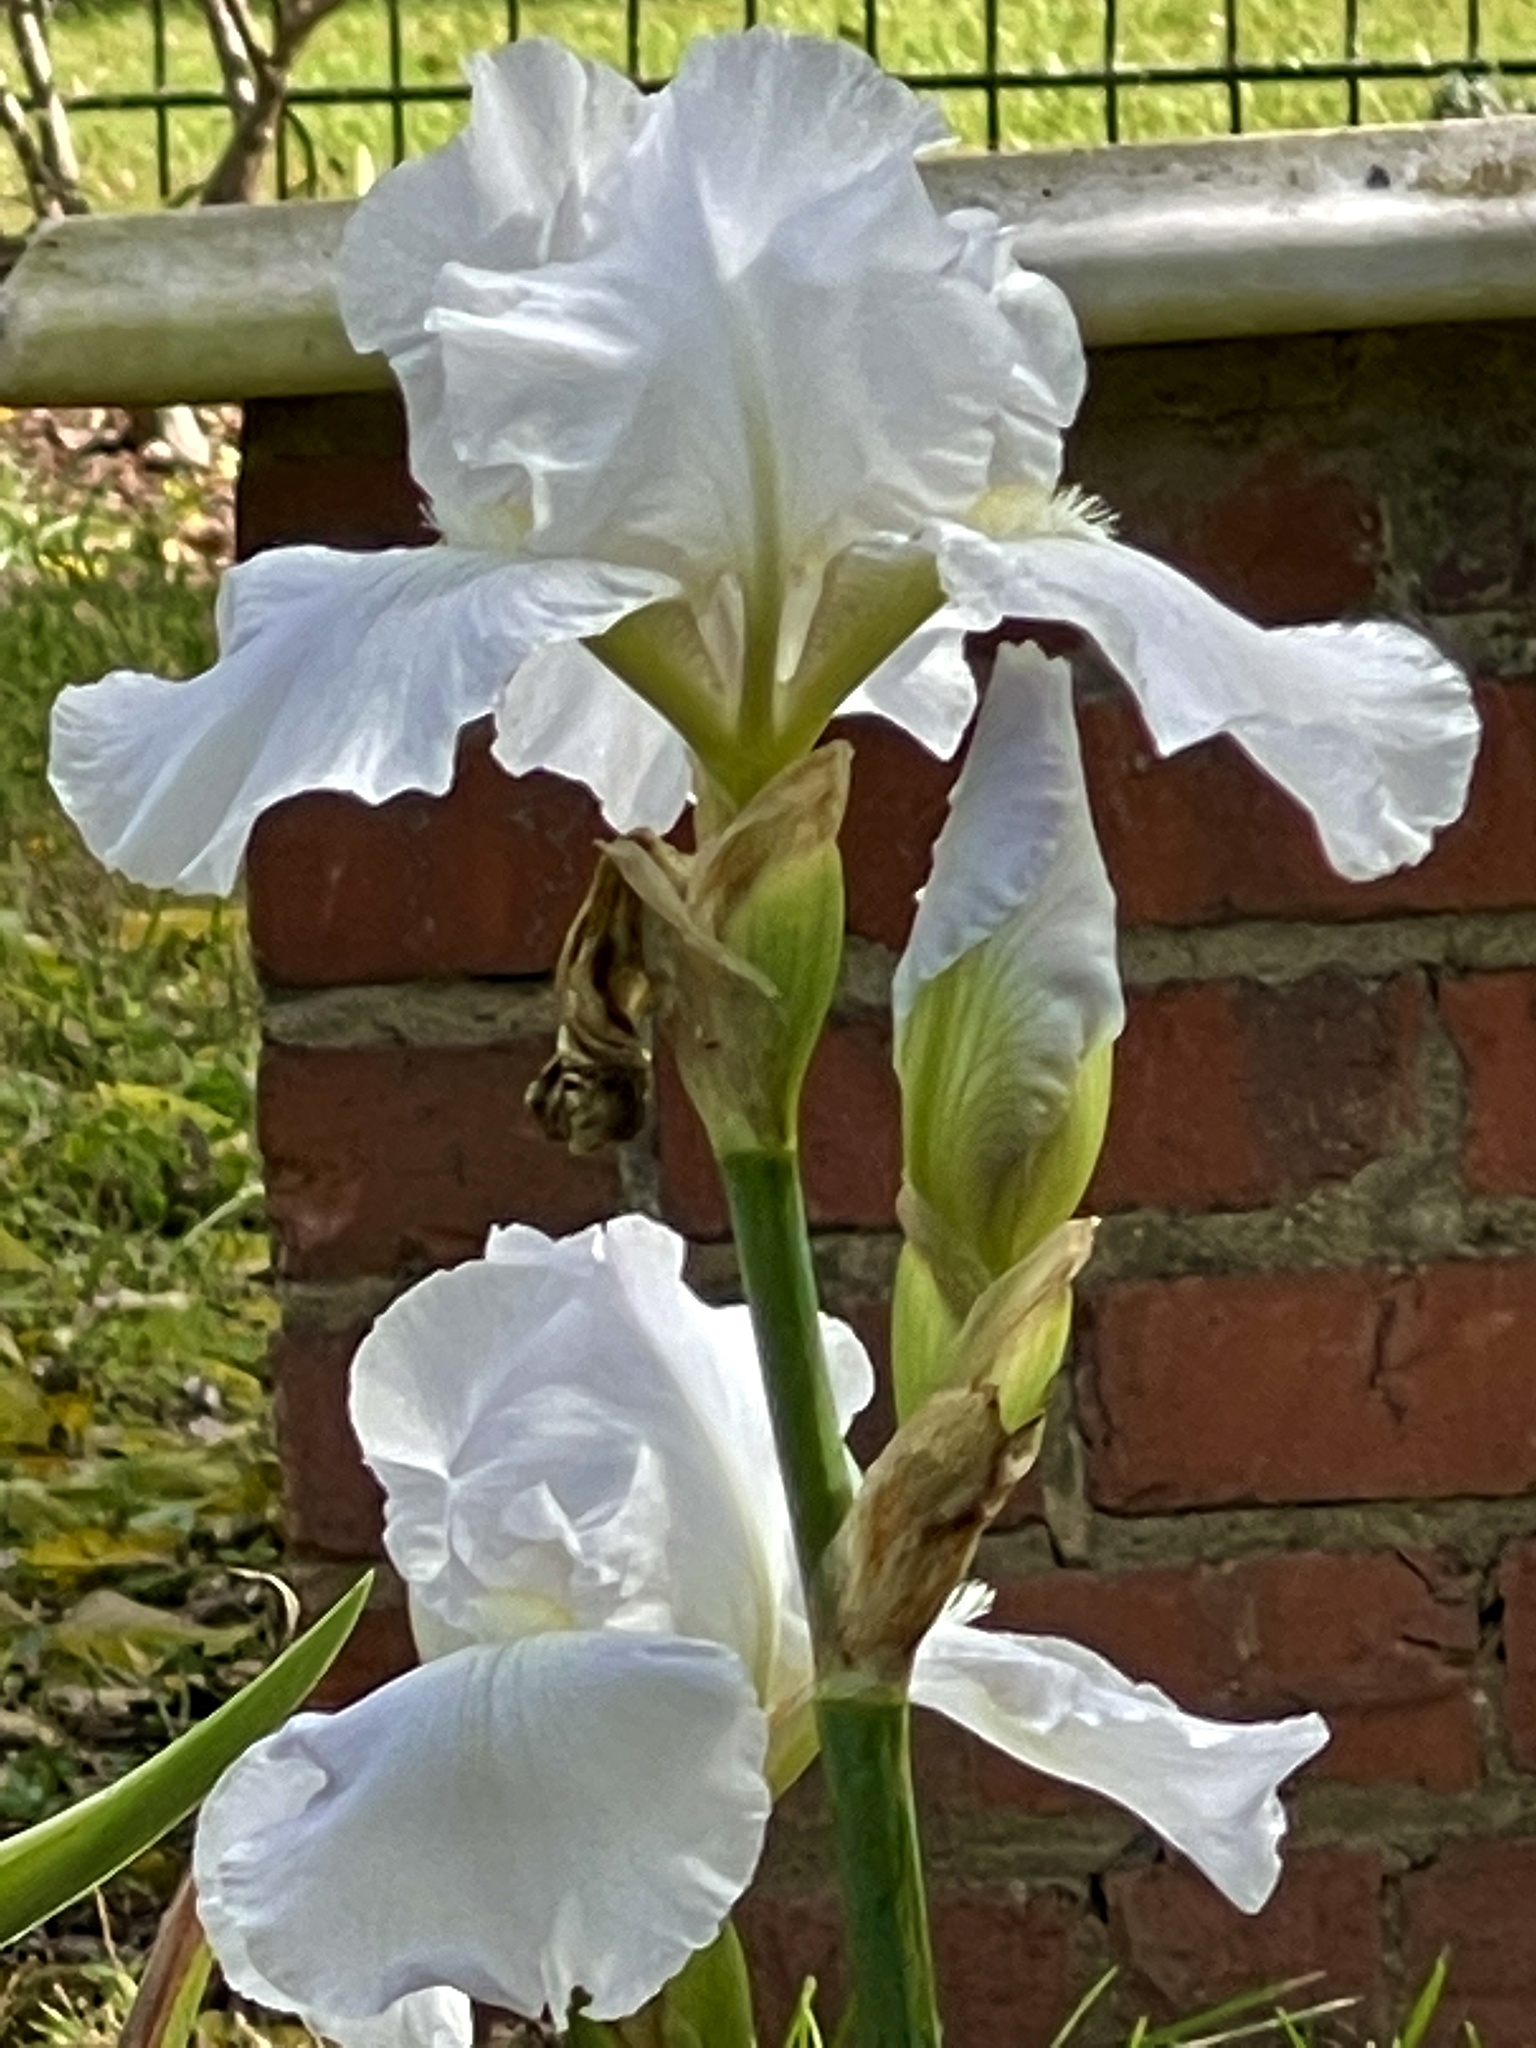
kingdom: Plantae
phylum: Tracheophyta
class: Liliopsida
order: Asparagales
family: Iridaceae
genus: Iris
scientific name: Iris hybrida
